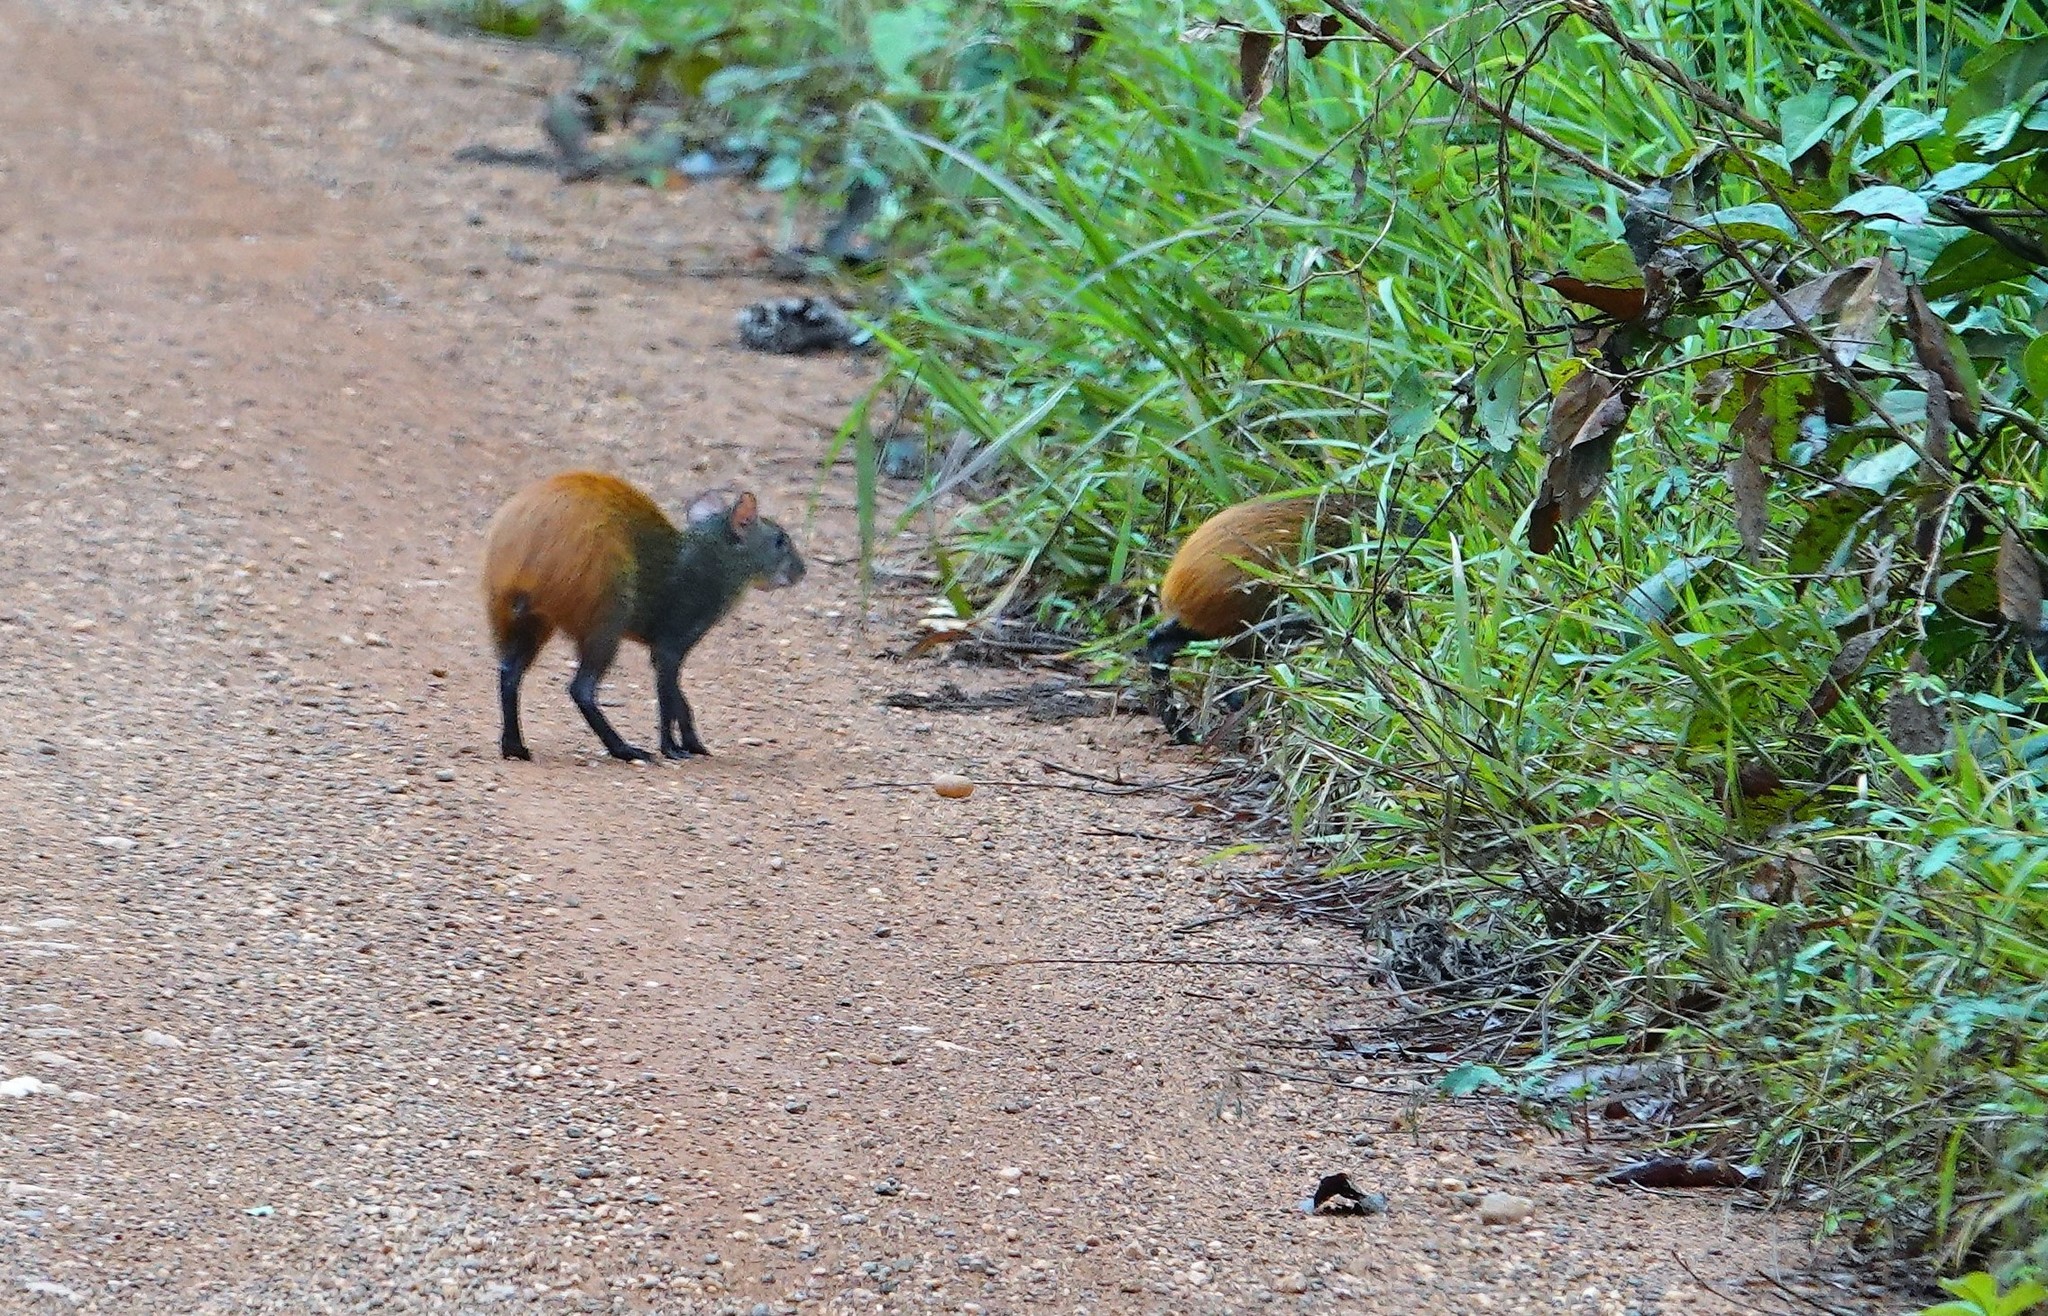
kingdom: Animalia
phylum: Chordata
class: Mammalia
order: Rodentia
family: Dasyproctidae
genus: Dasyprocta
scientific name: Dasyprocta leporina
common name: Red-rumped agouti
